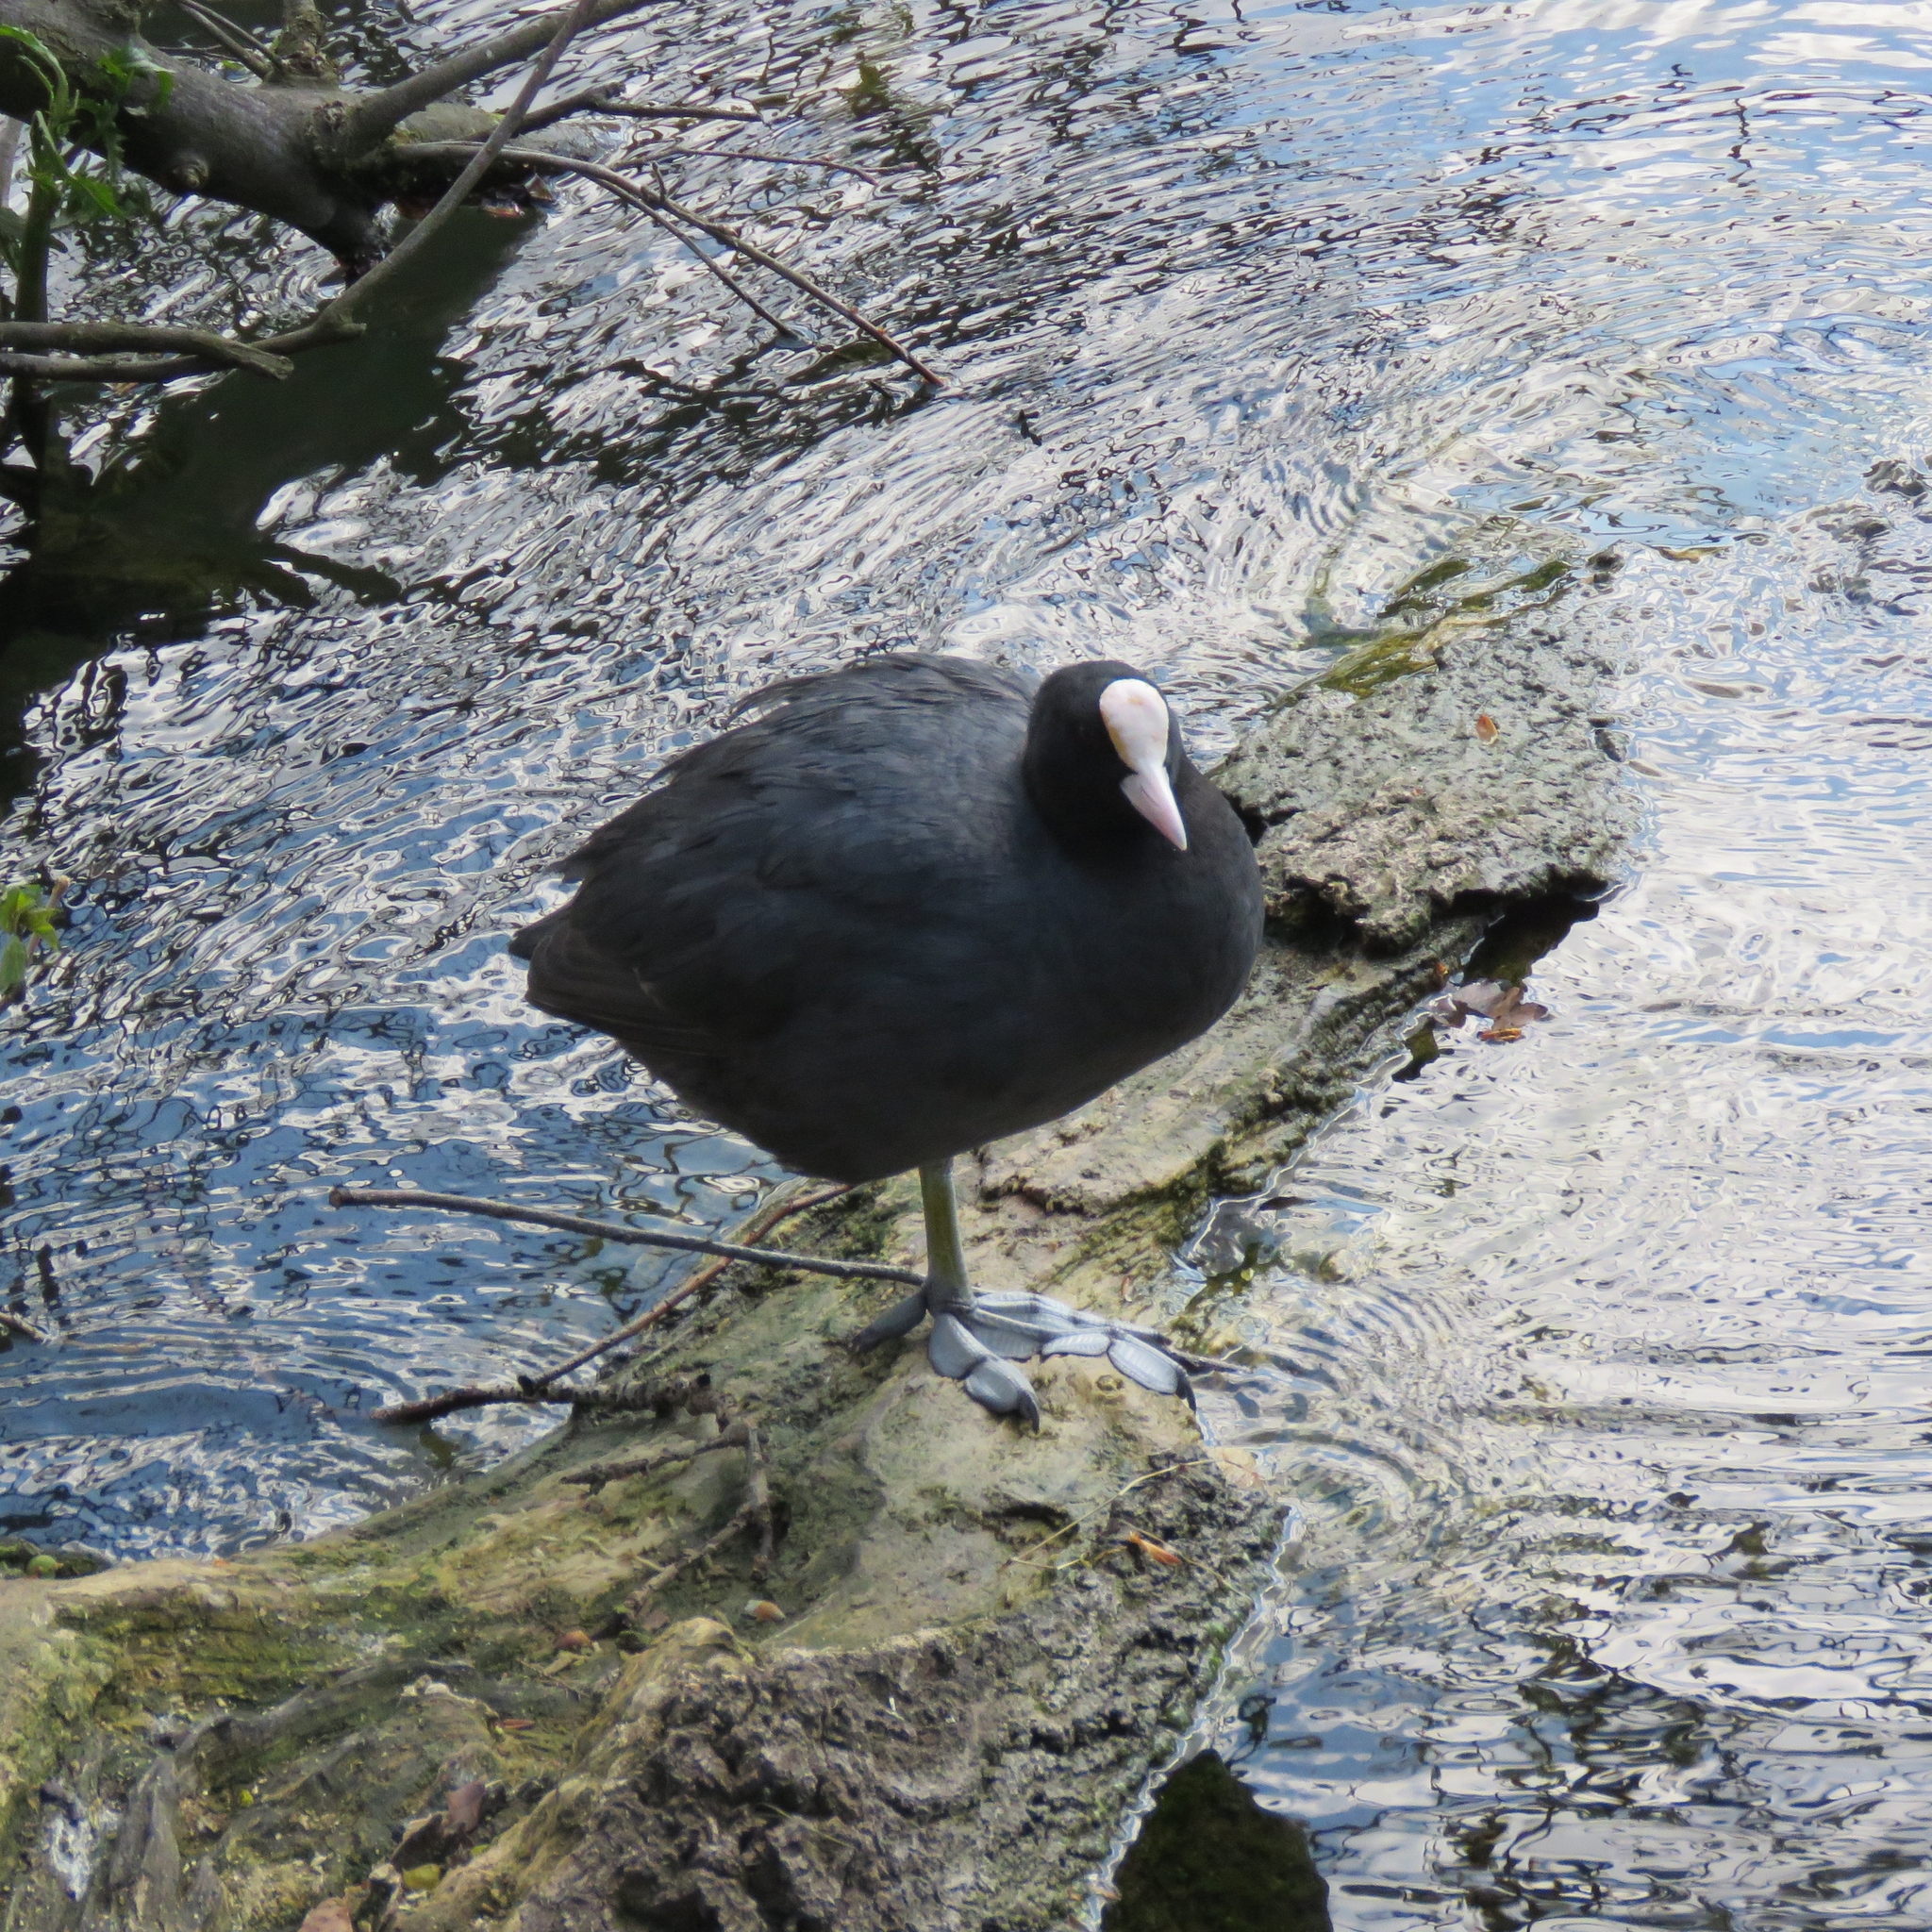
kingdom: Animalia
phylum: Chordata
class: Aves
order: Gruiformes
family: Rallidae
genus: Fulica
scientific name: Fulica atra
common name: Eurasian coot
